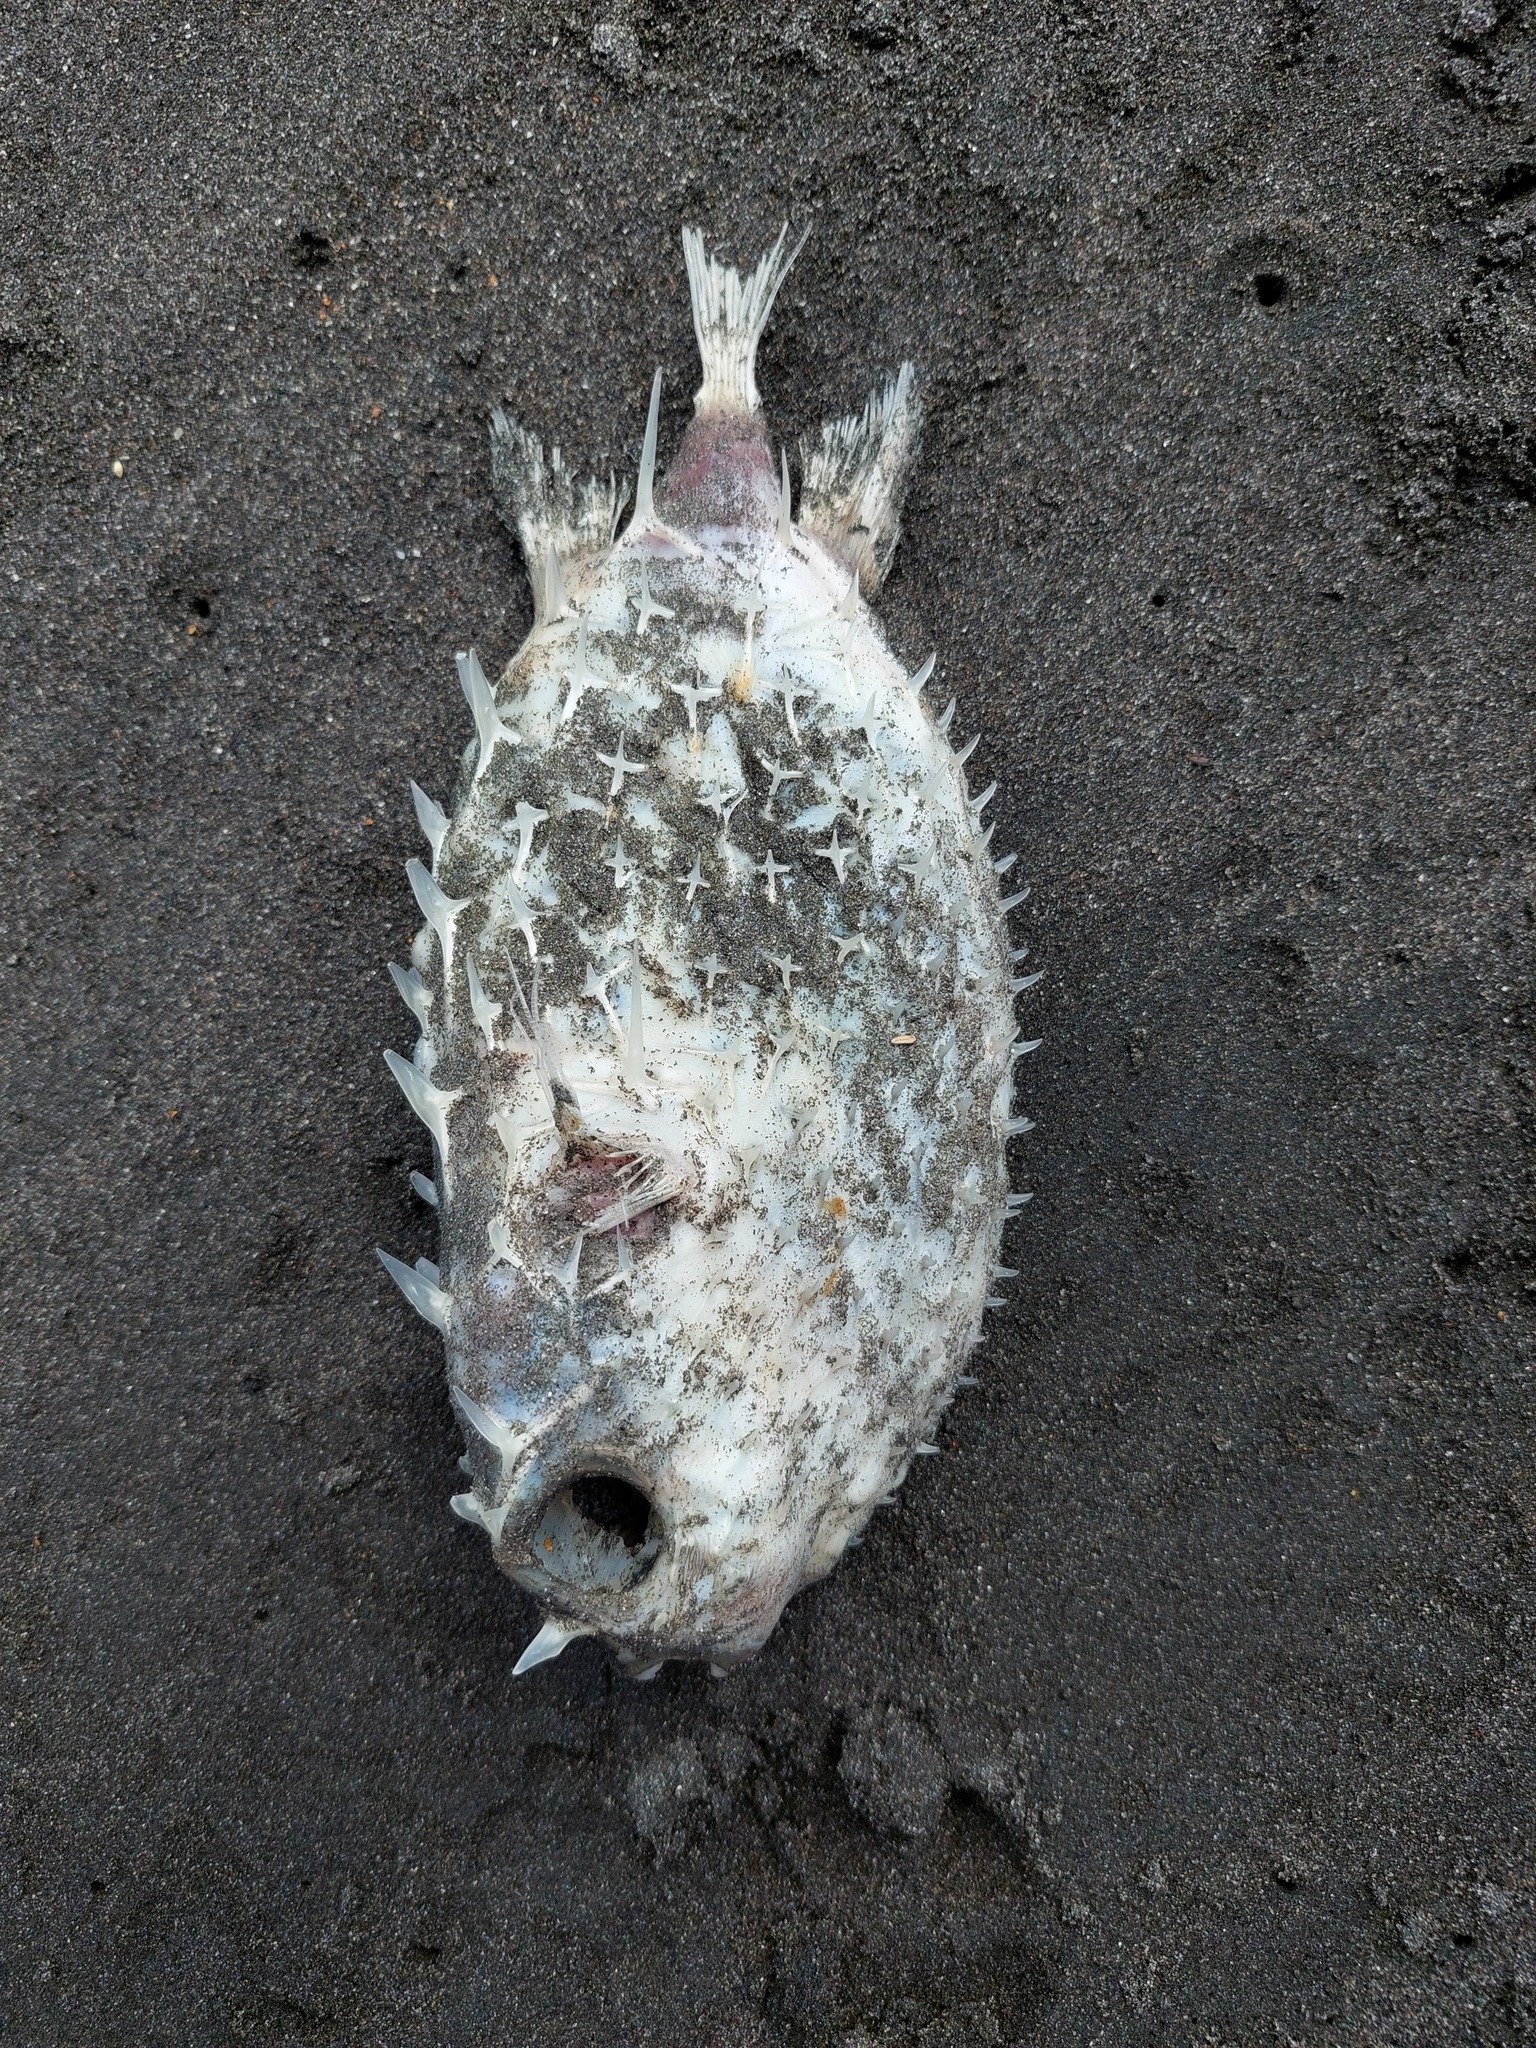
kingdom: Animalia
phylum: Chordata
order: Tetraodontiformes
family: Diodontidae
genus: Allomycterus
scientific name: Allomycterus pilatus
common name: No common name
